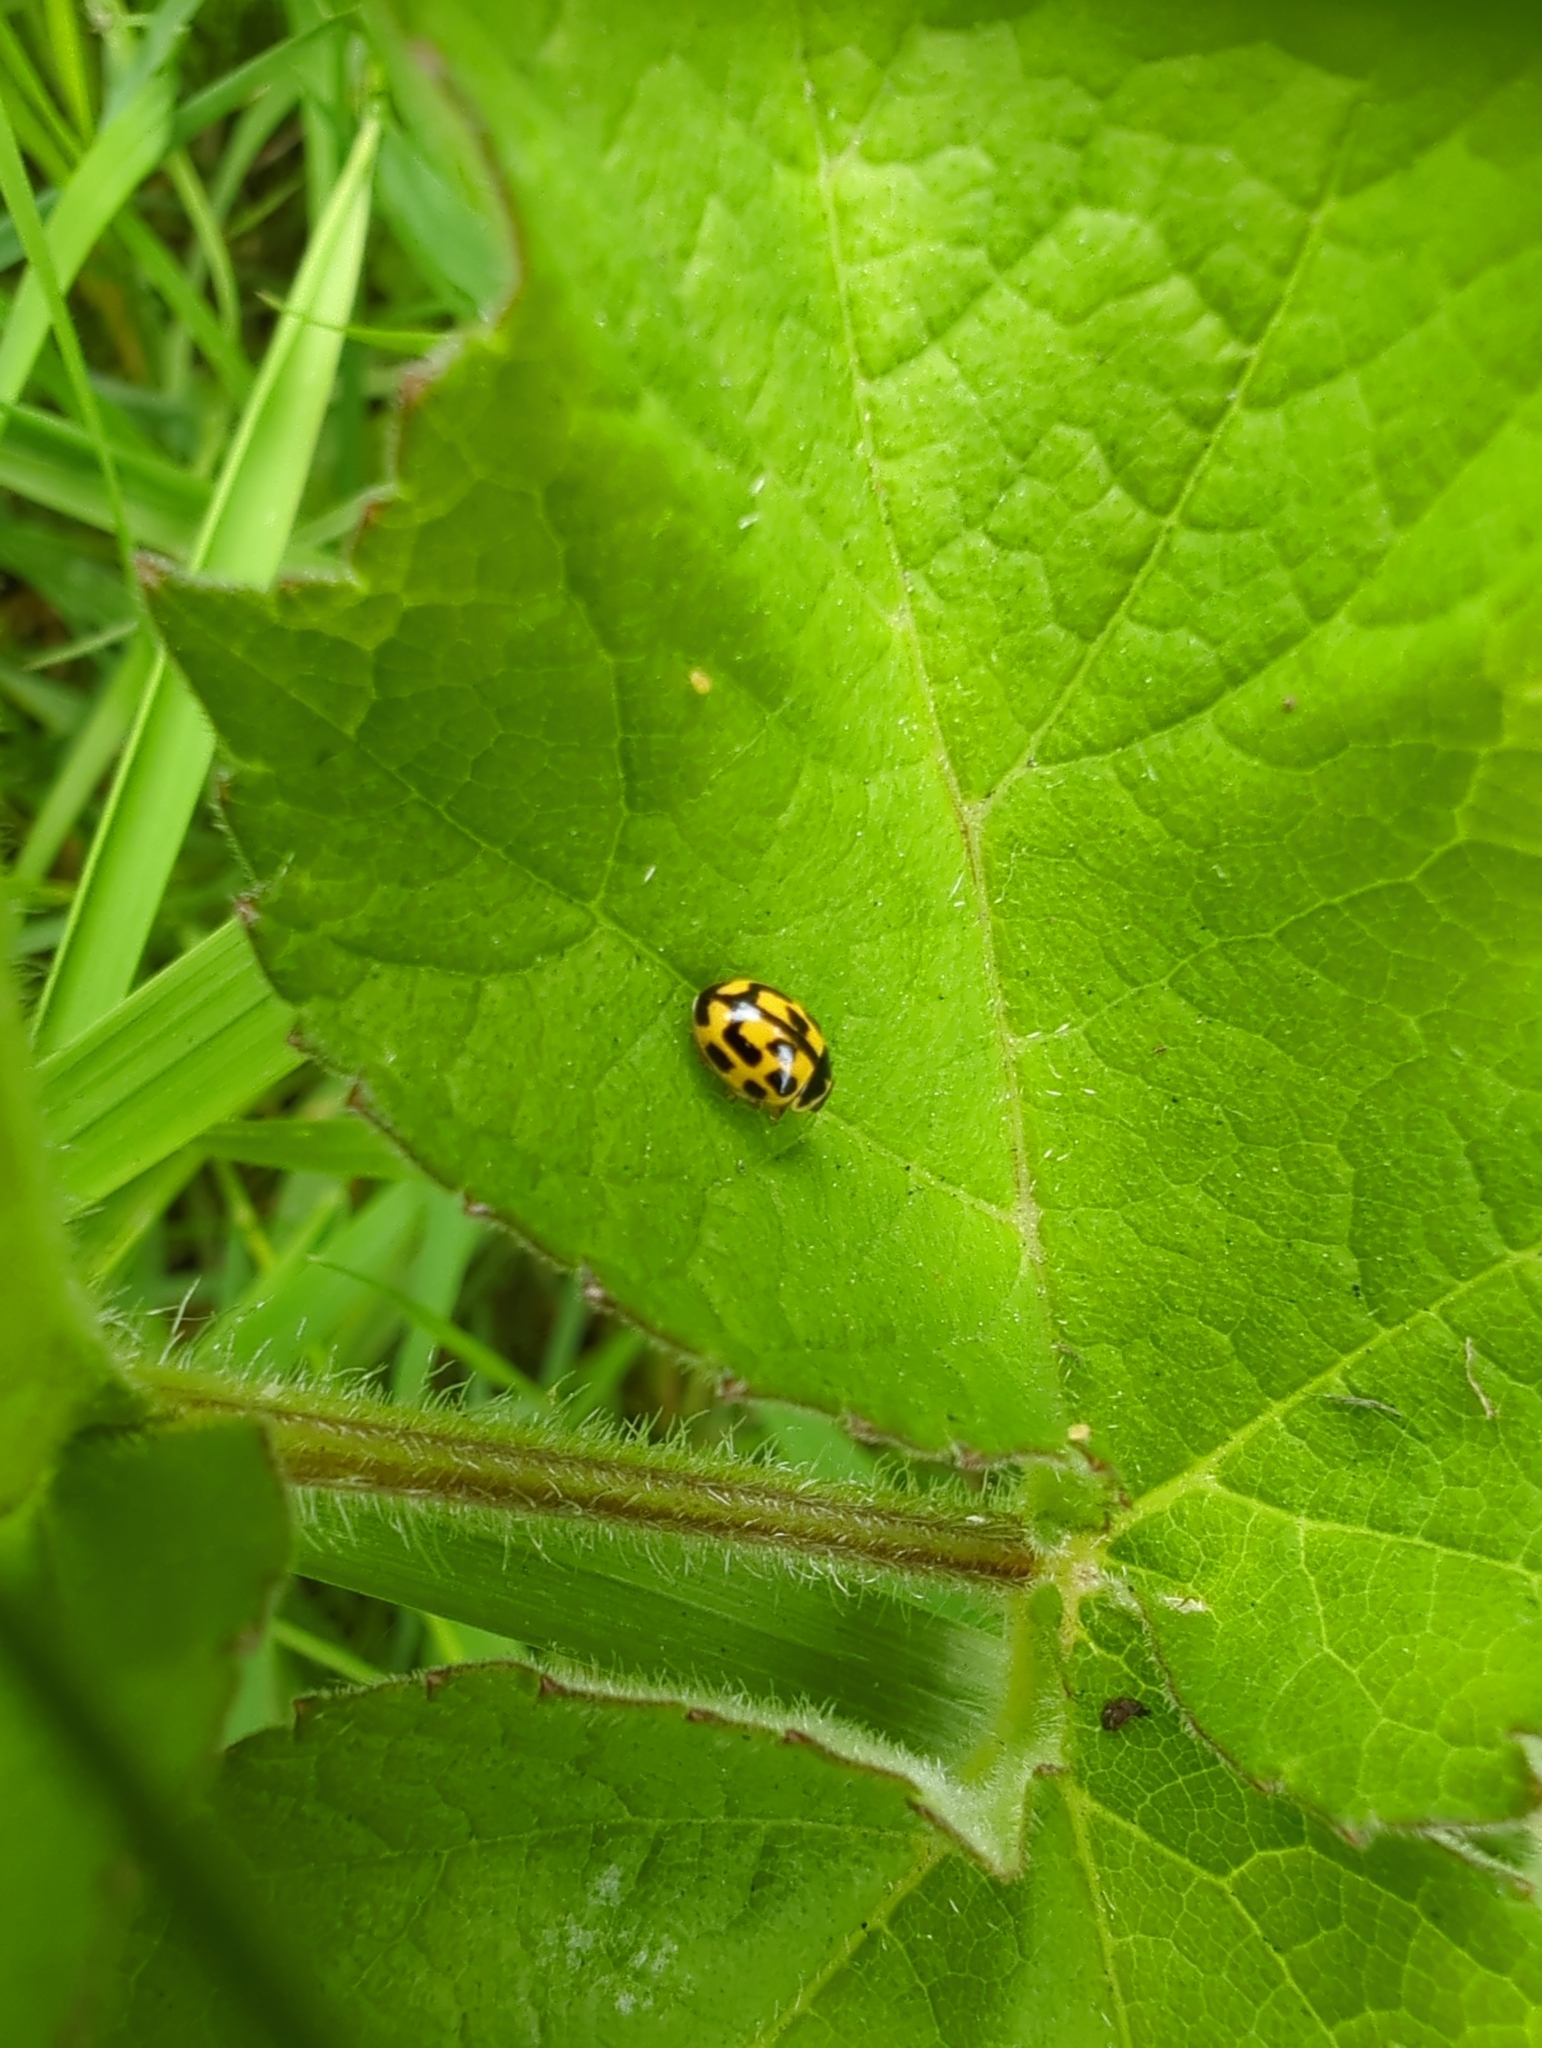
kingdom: Animalia
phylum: Arthropoda
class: Insecta
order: Coleoptera
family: Coccinellidae
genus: Propylaea
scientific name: Propylaea quatuordecimpunctata
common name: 14-spotted ladybird beetle
